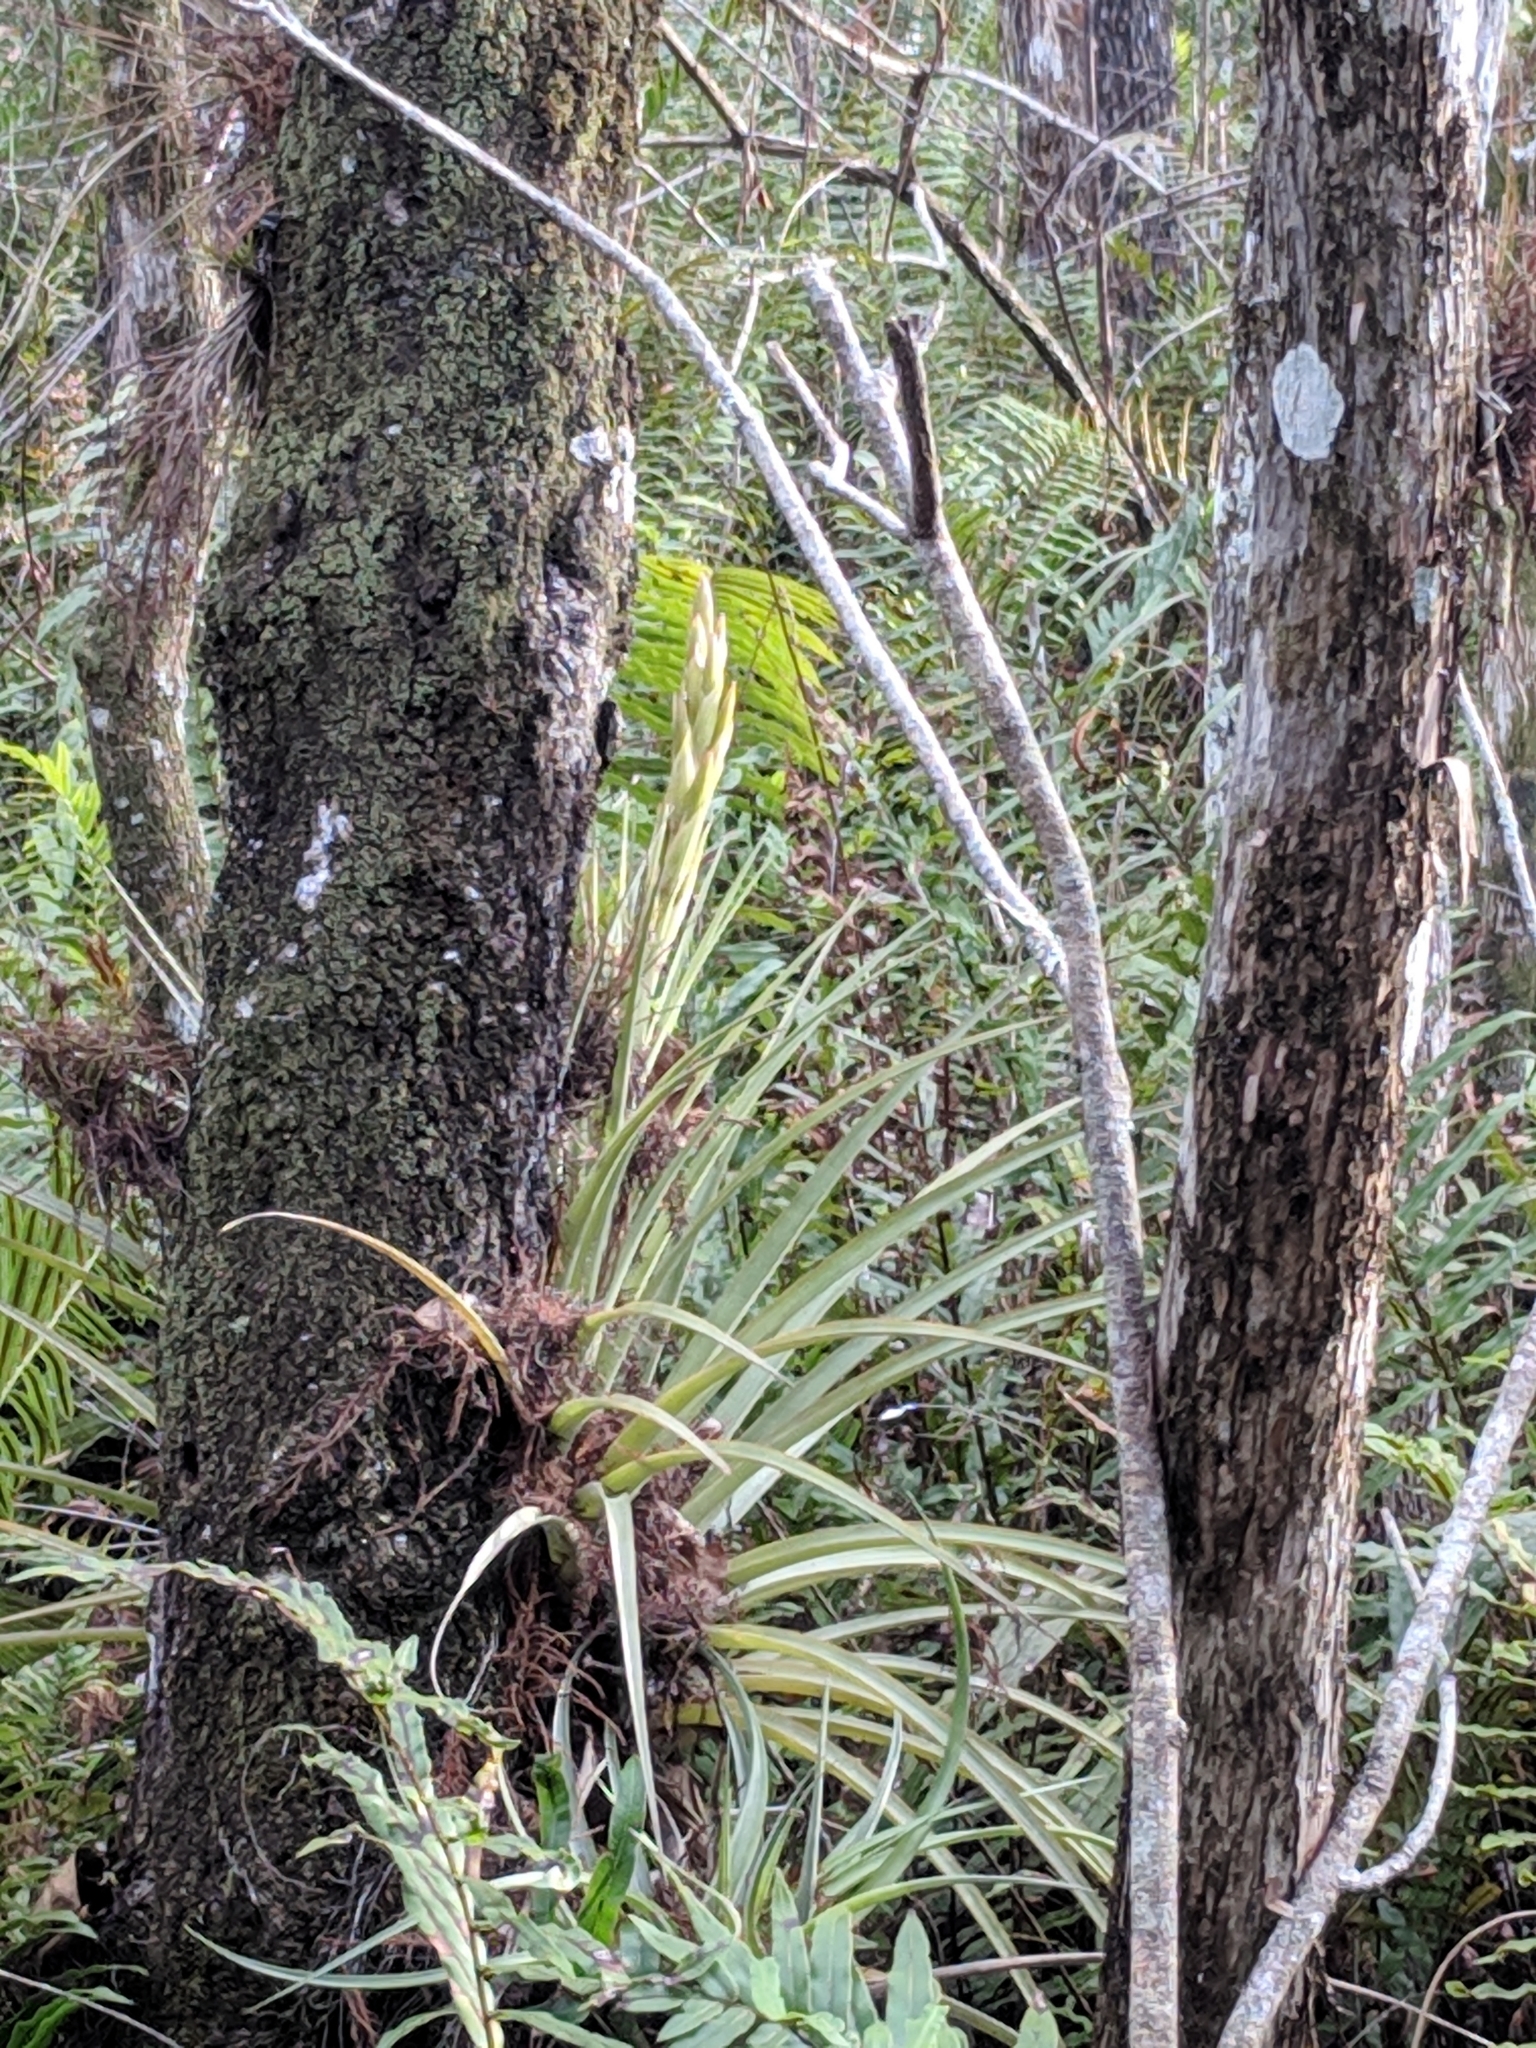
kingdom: Plantae
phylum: Tracheophyta
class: Liliopsida
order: Poales
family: Bromeliaceae
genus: Tillandsia
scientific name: Tillandsia fasciculata
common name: Giant airplant
